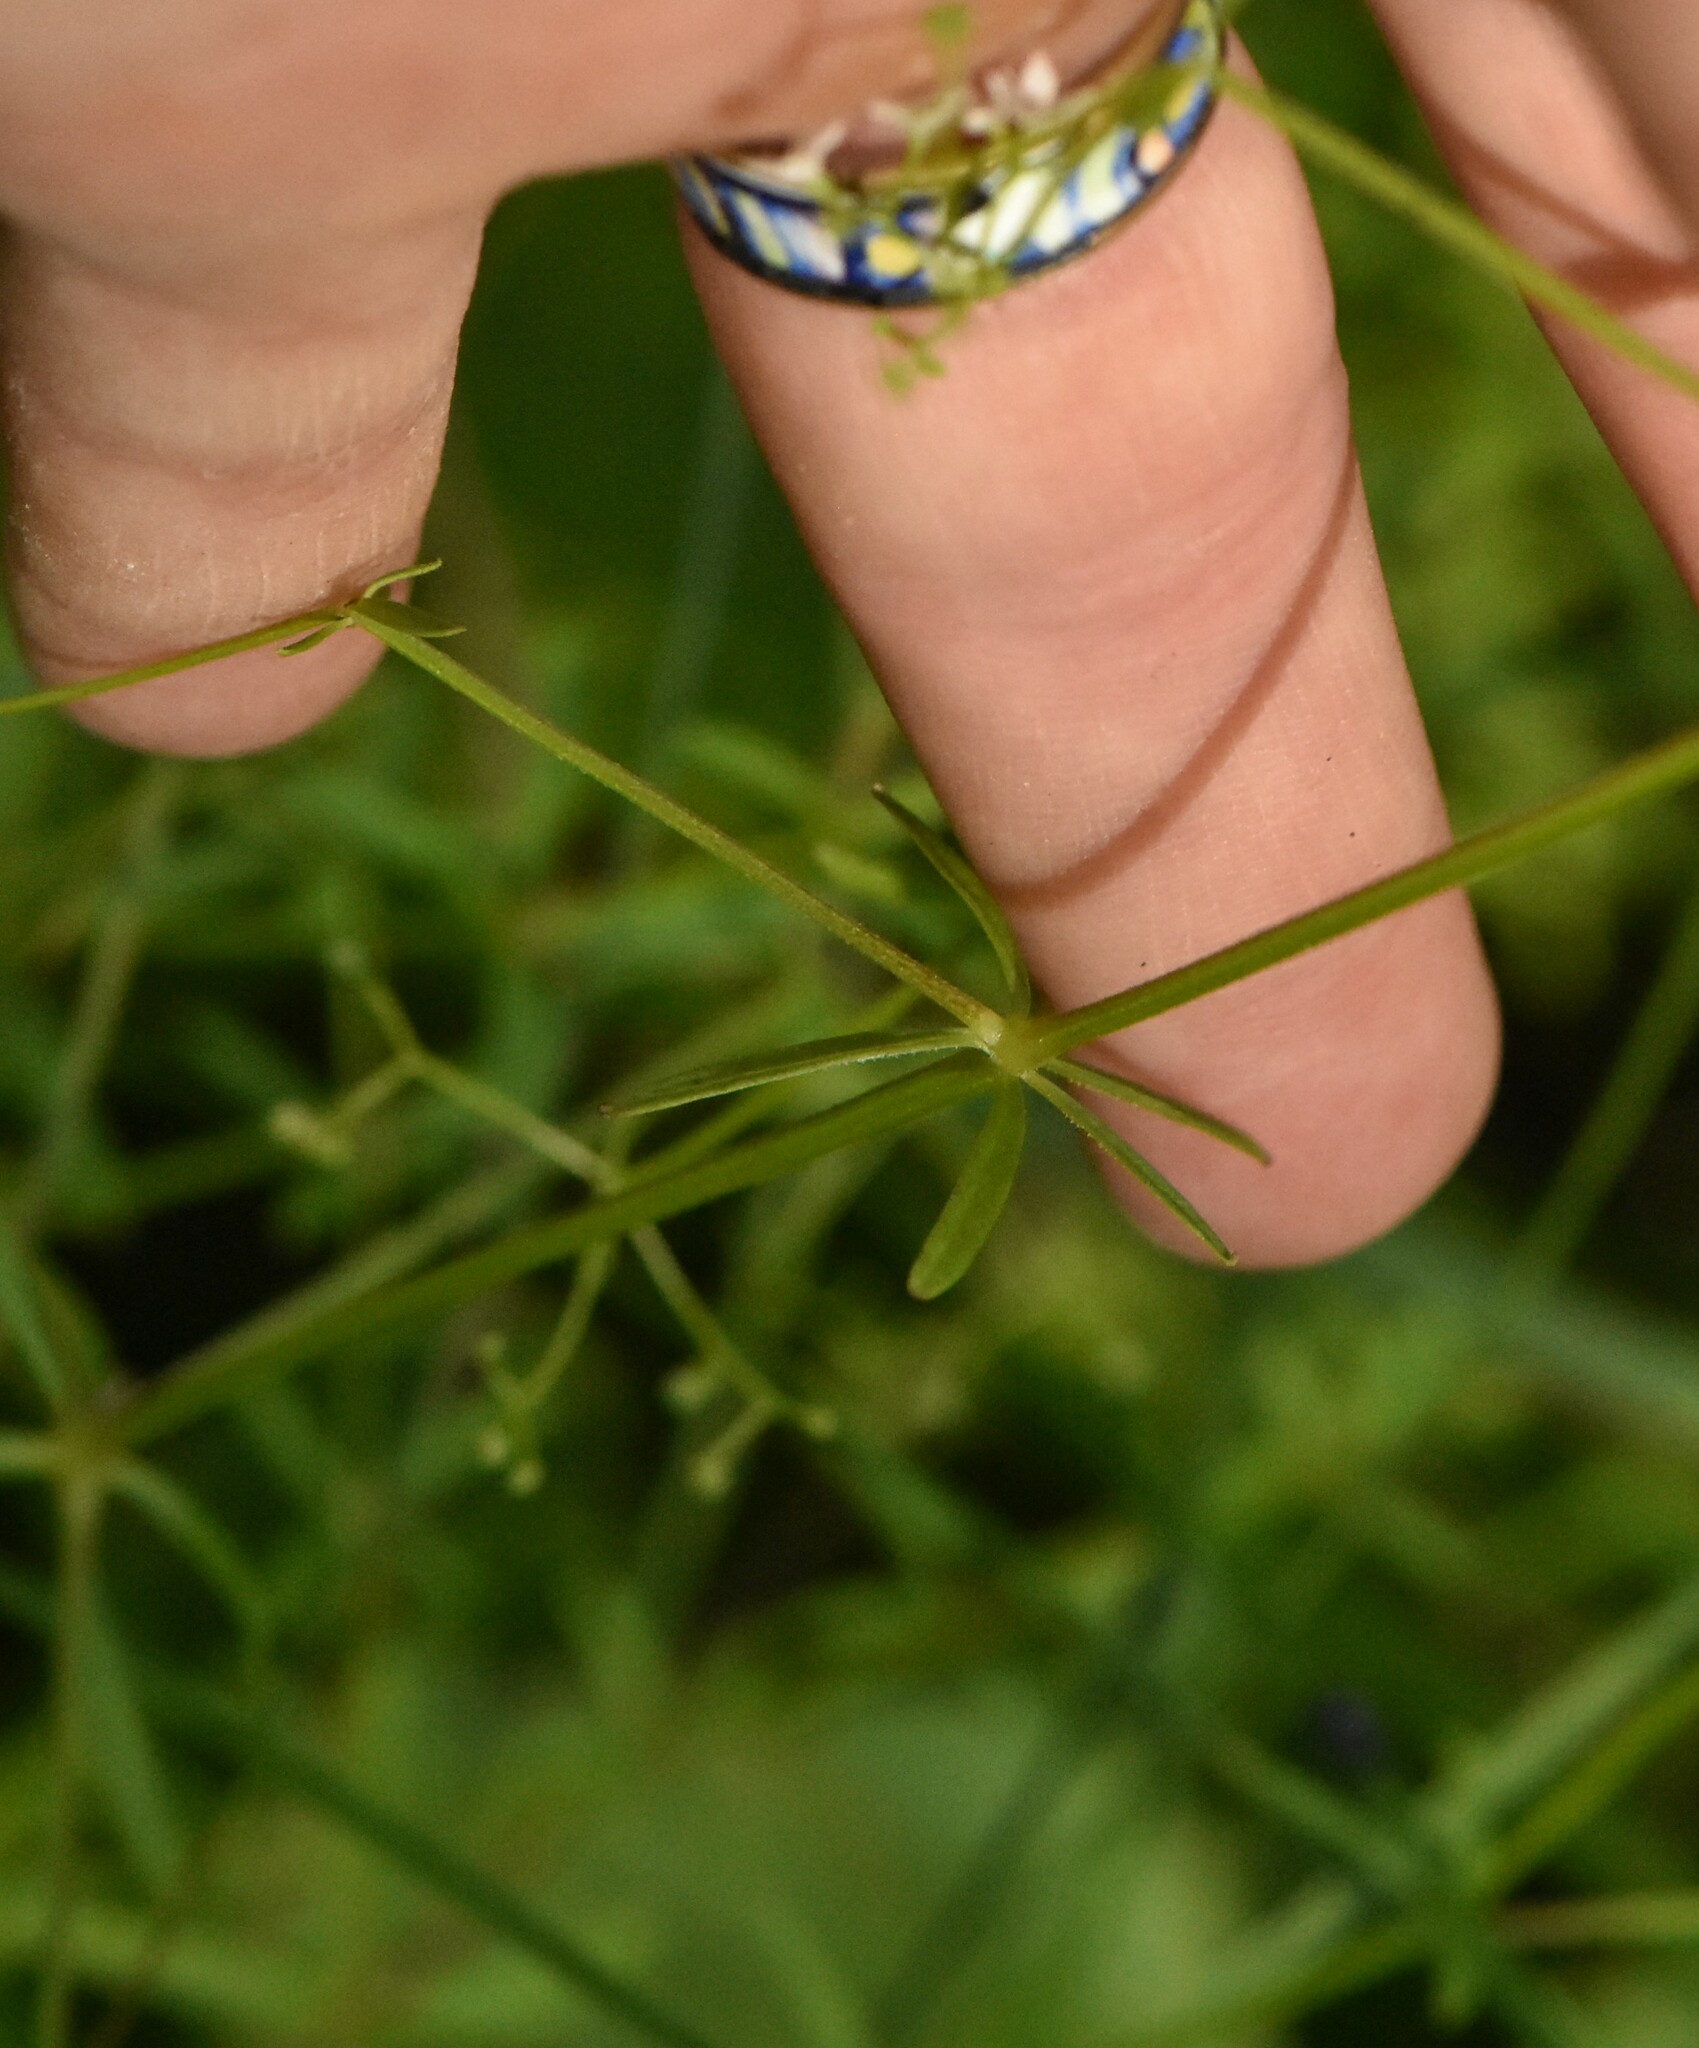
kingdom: Plantae
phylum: Tracheophyta
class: Magnoliopsida
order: Gentianales
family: Rubiaceae
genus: Galium
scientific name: Galium palustre
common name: Common marsh-bedstraw
